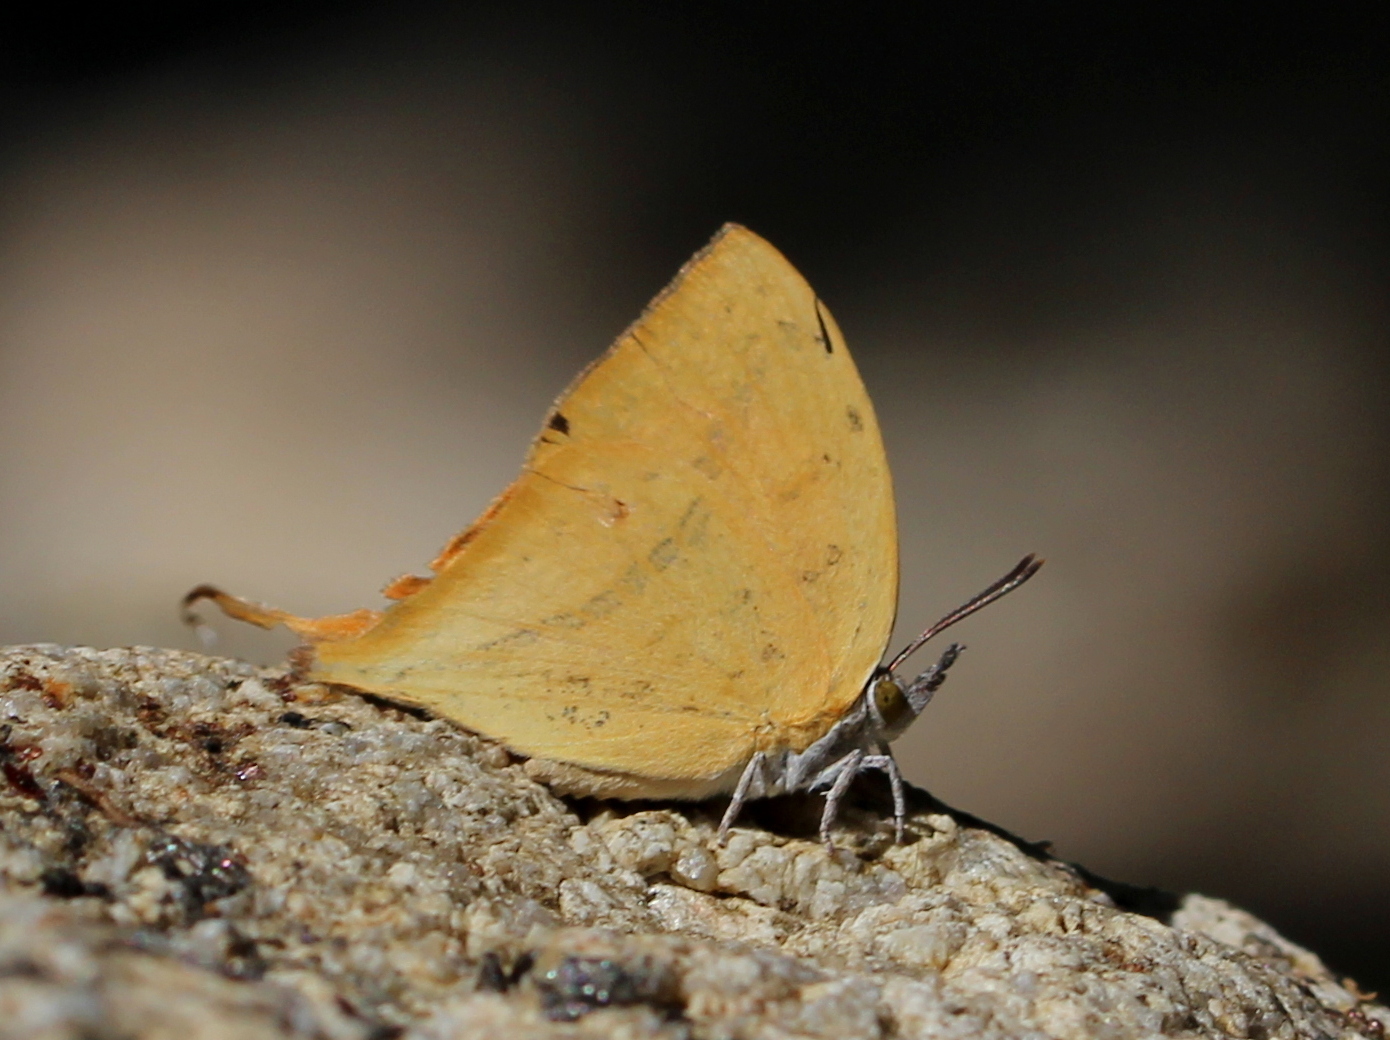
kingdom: Animalia
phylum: Arthropoda
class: Insecta
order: Lepidoptera
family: Lycaenidae
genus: Loxura
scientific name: Loxura atymnus
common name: Common yamfly
